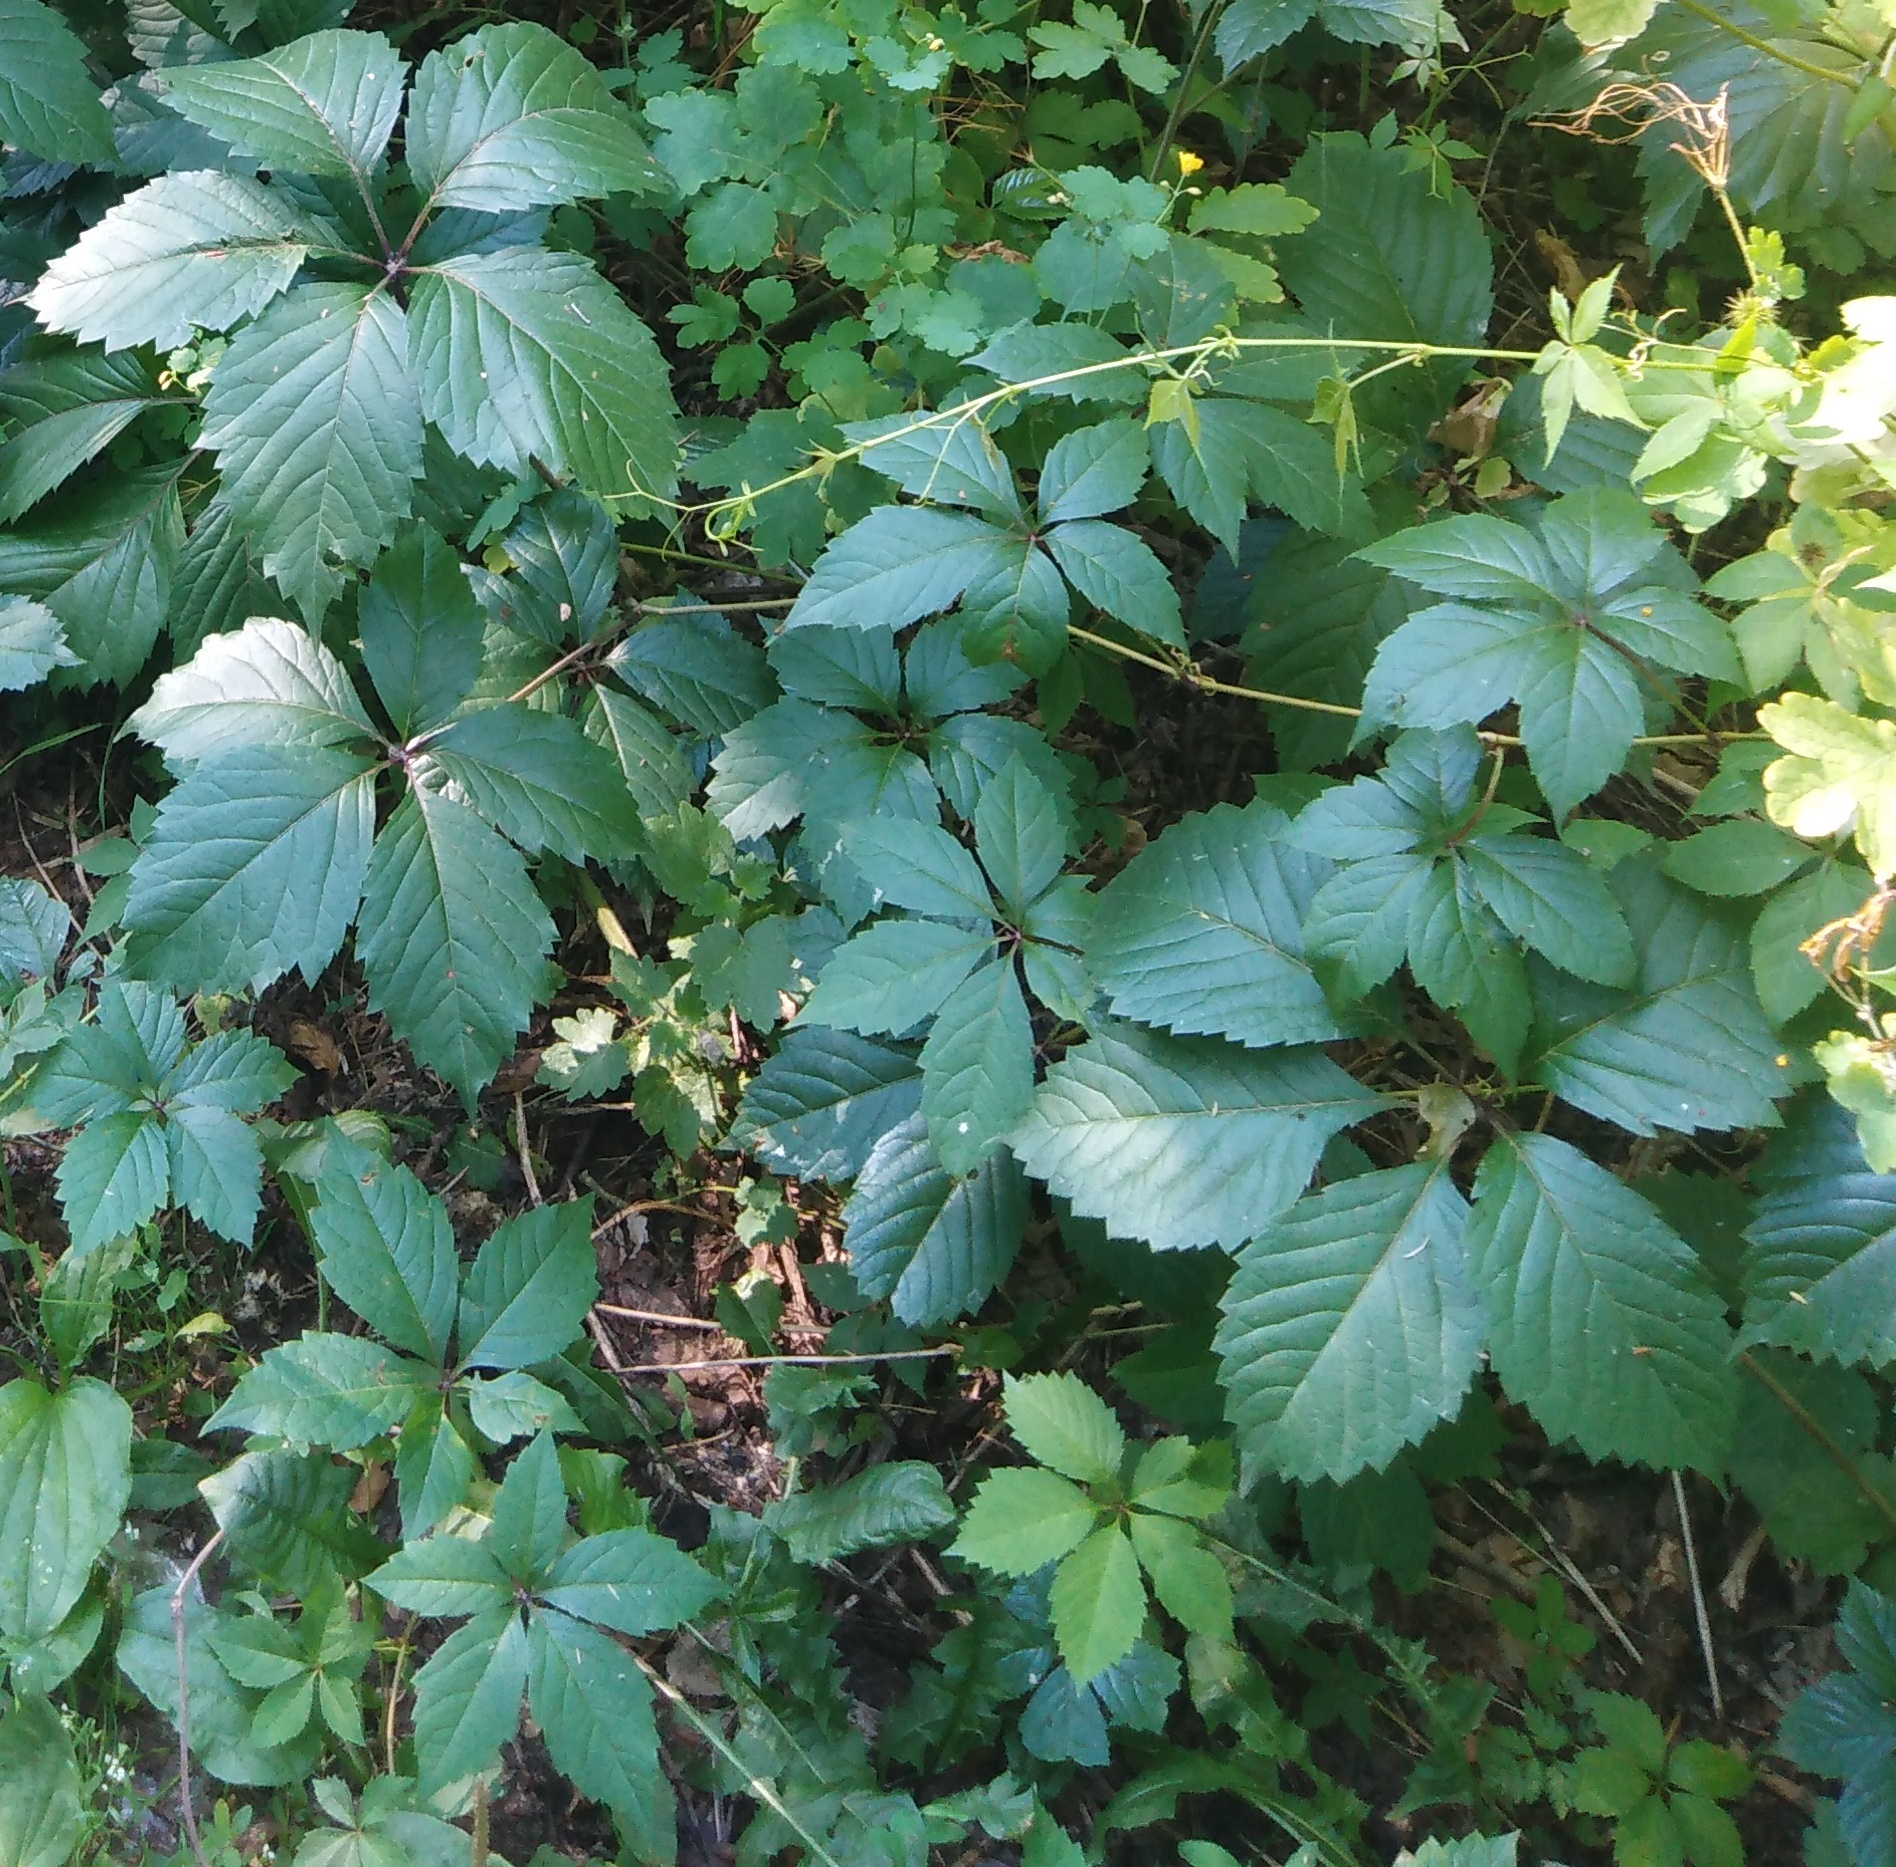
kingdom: Plantae
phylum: Tracheophyta
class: Magnoliopsida
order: Vitales
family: Vitaceae
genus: Parthenocissus
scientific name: Parthenocissus inserta
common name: False virginia-creeper
